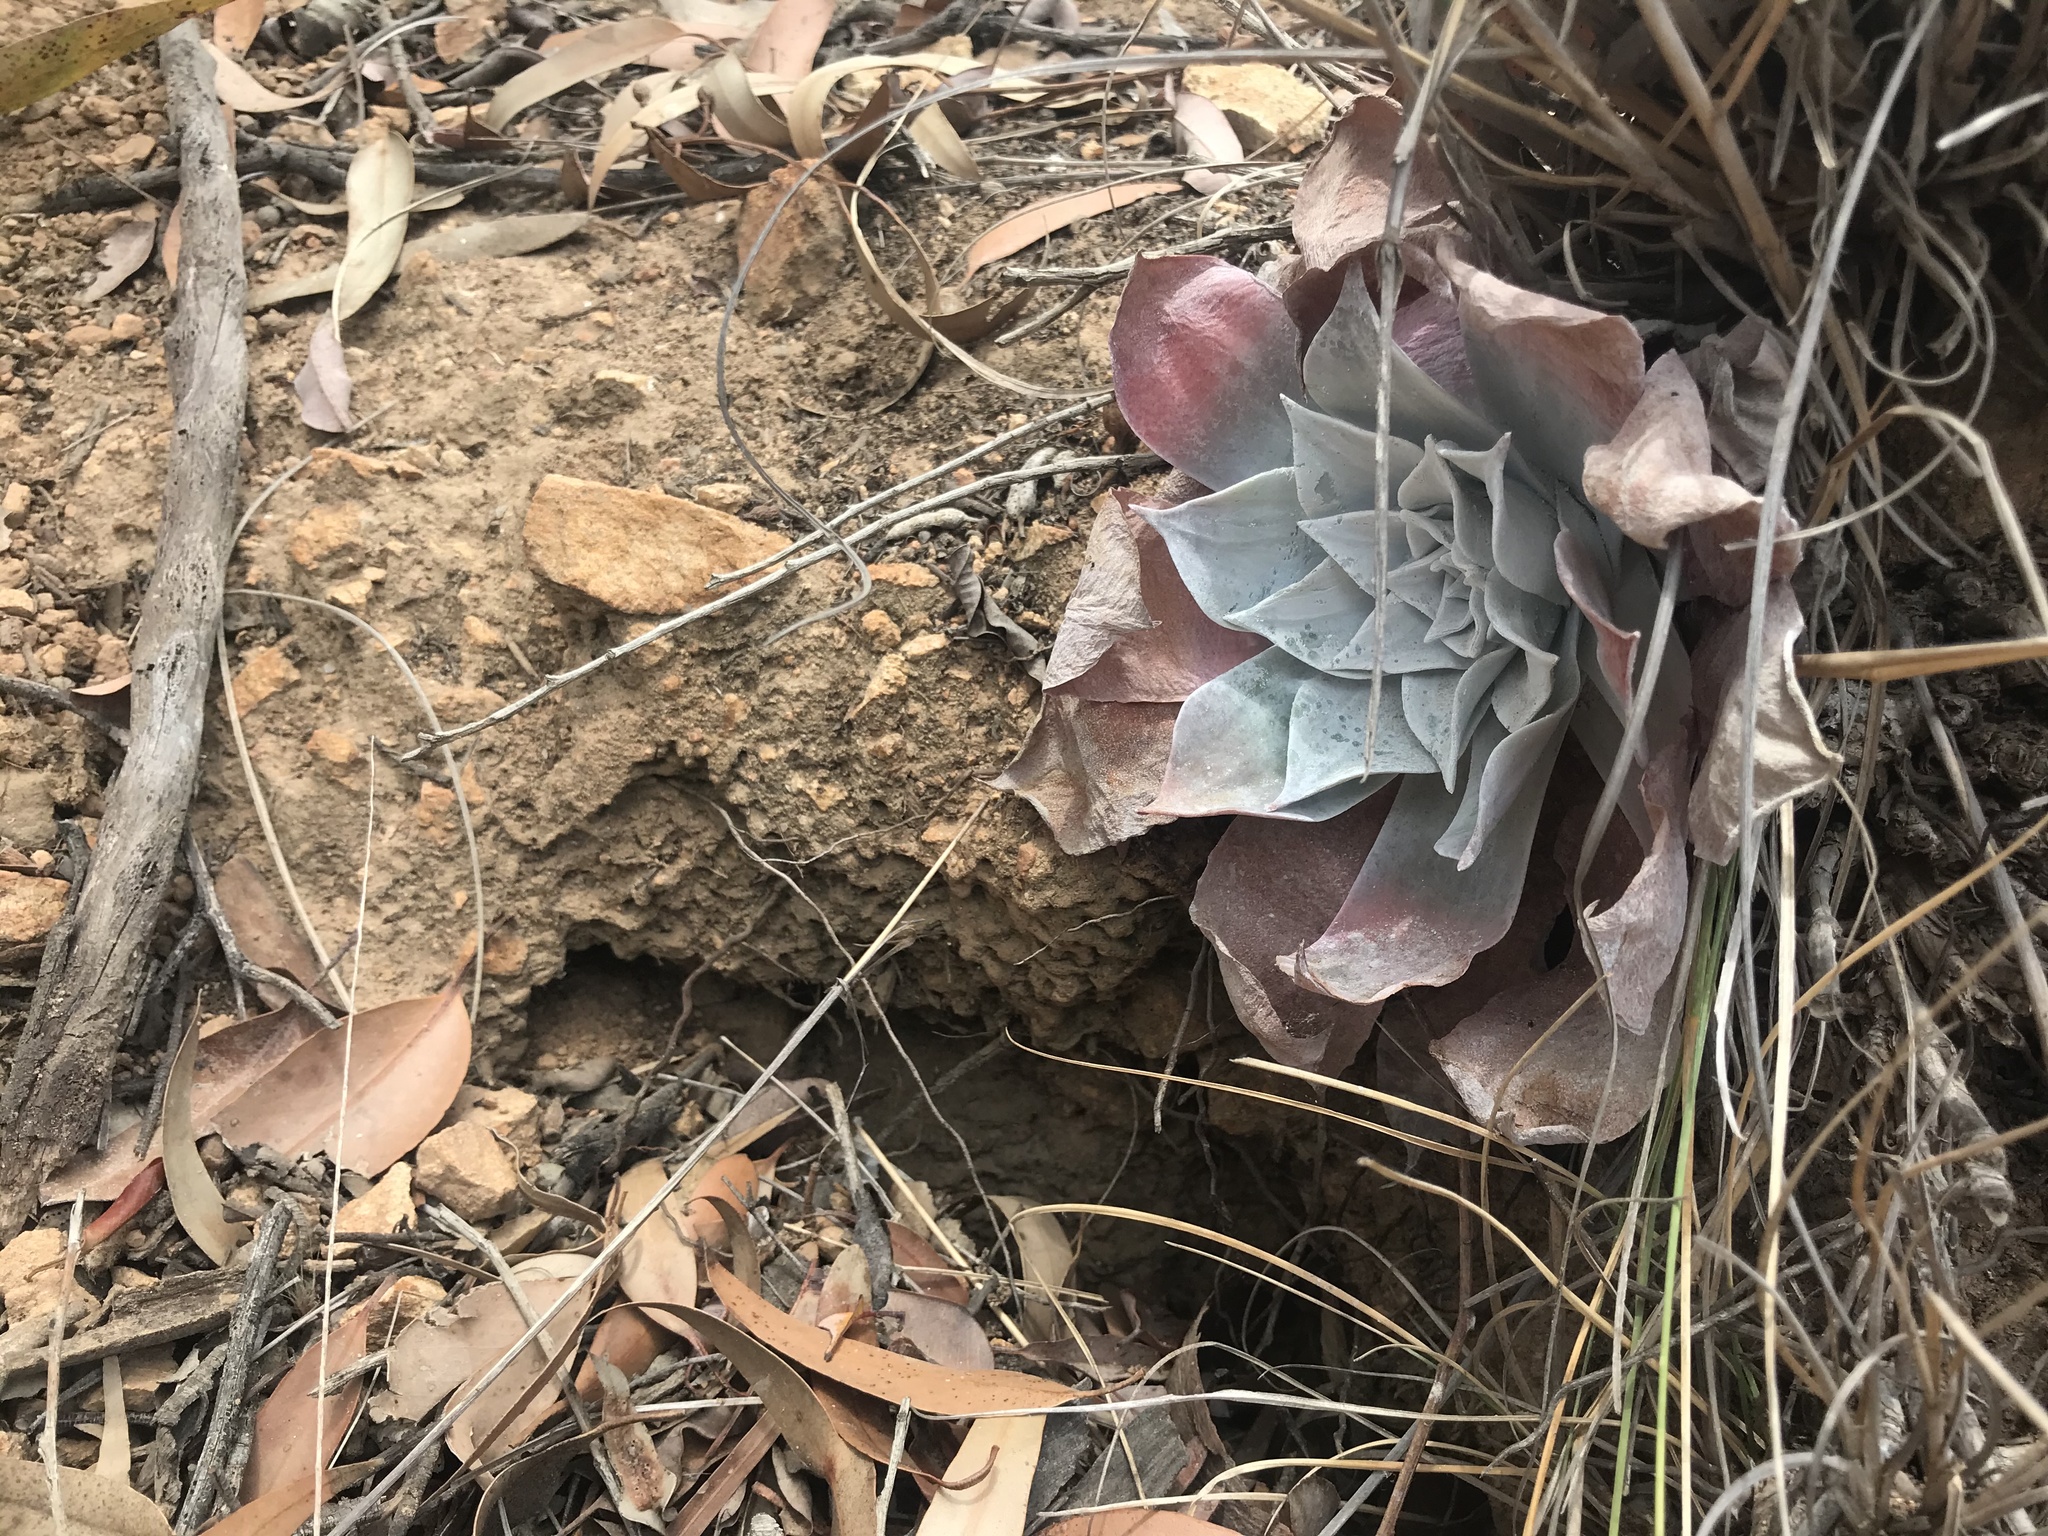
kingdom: Plantae
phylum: Tracheophyta
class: Magnoliopsida
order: Saxifragales
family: Crassulaceae
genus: Dudleya
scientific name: Dudleya pulverulenta
